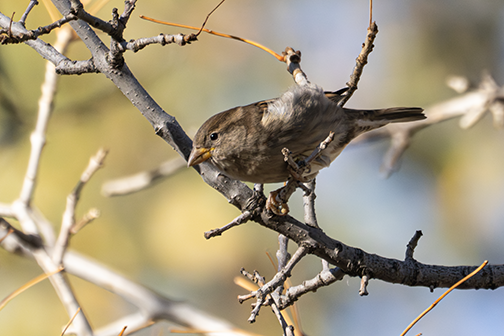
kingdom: Animalia
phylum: Chordata
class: Aves
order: Passeriformes
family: Passeridae
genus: Passer
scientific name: Passer domesticus
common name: House sparrow
